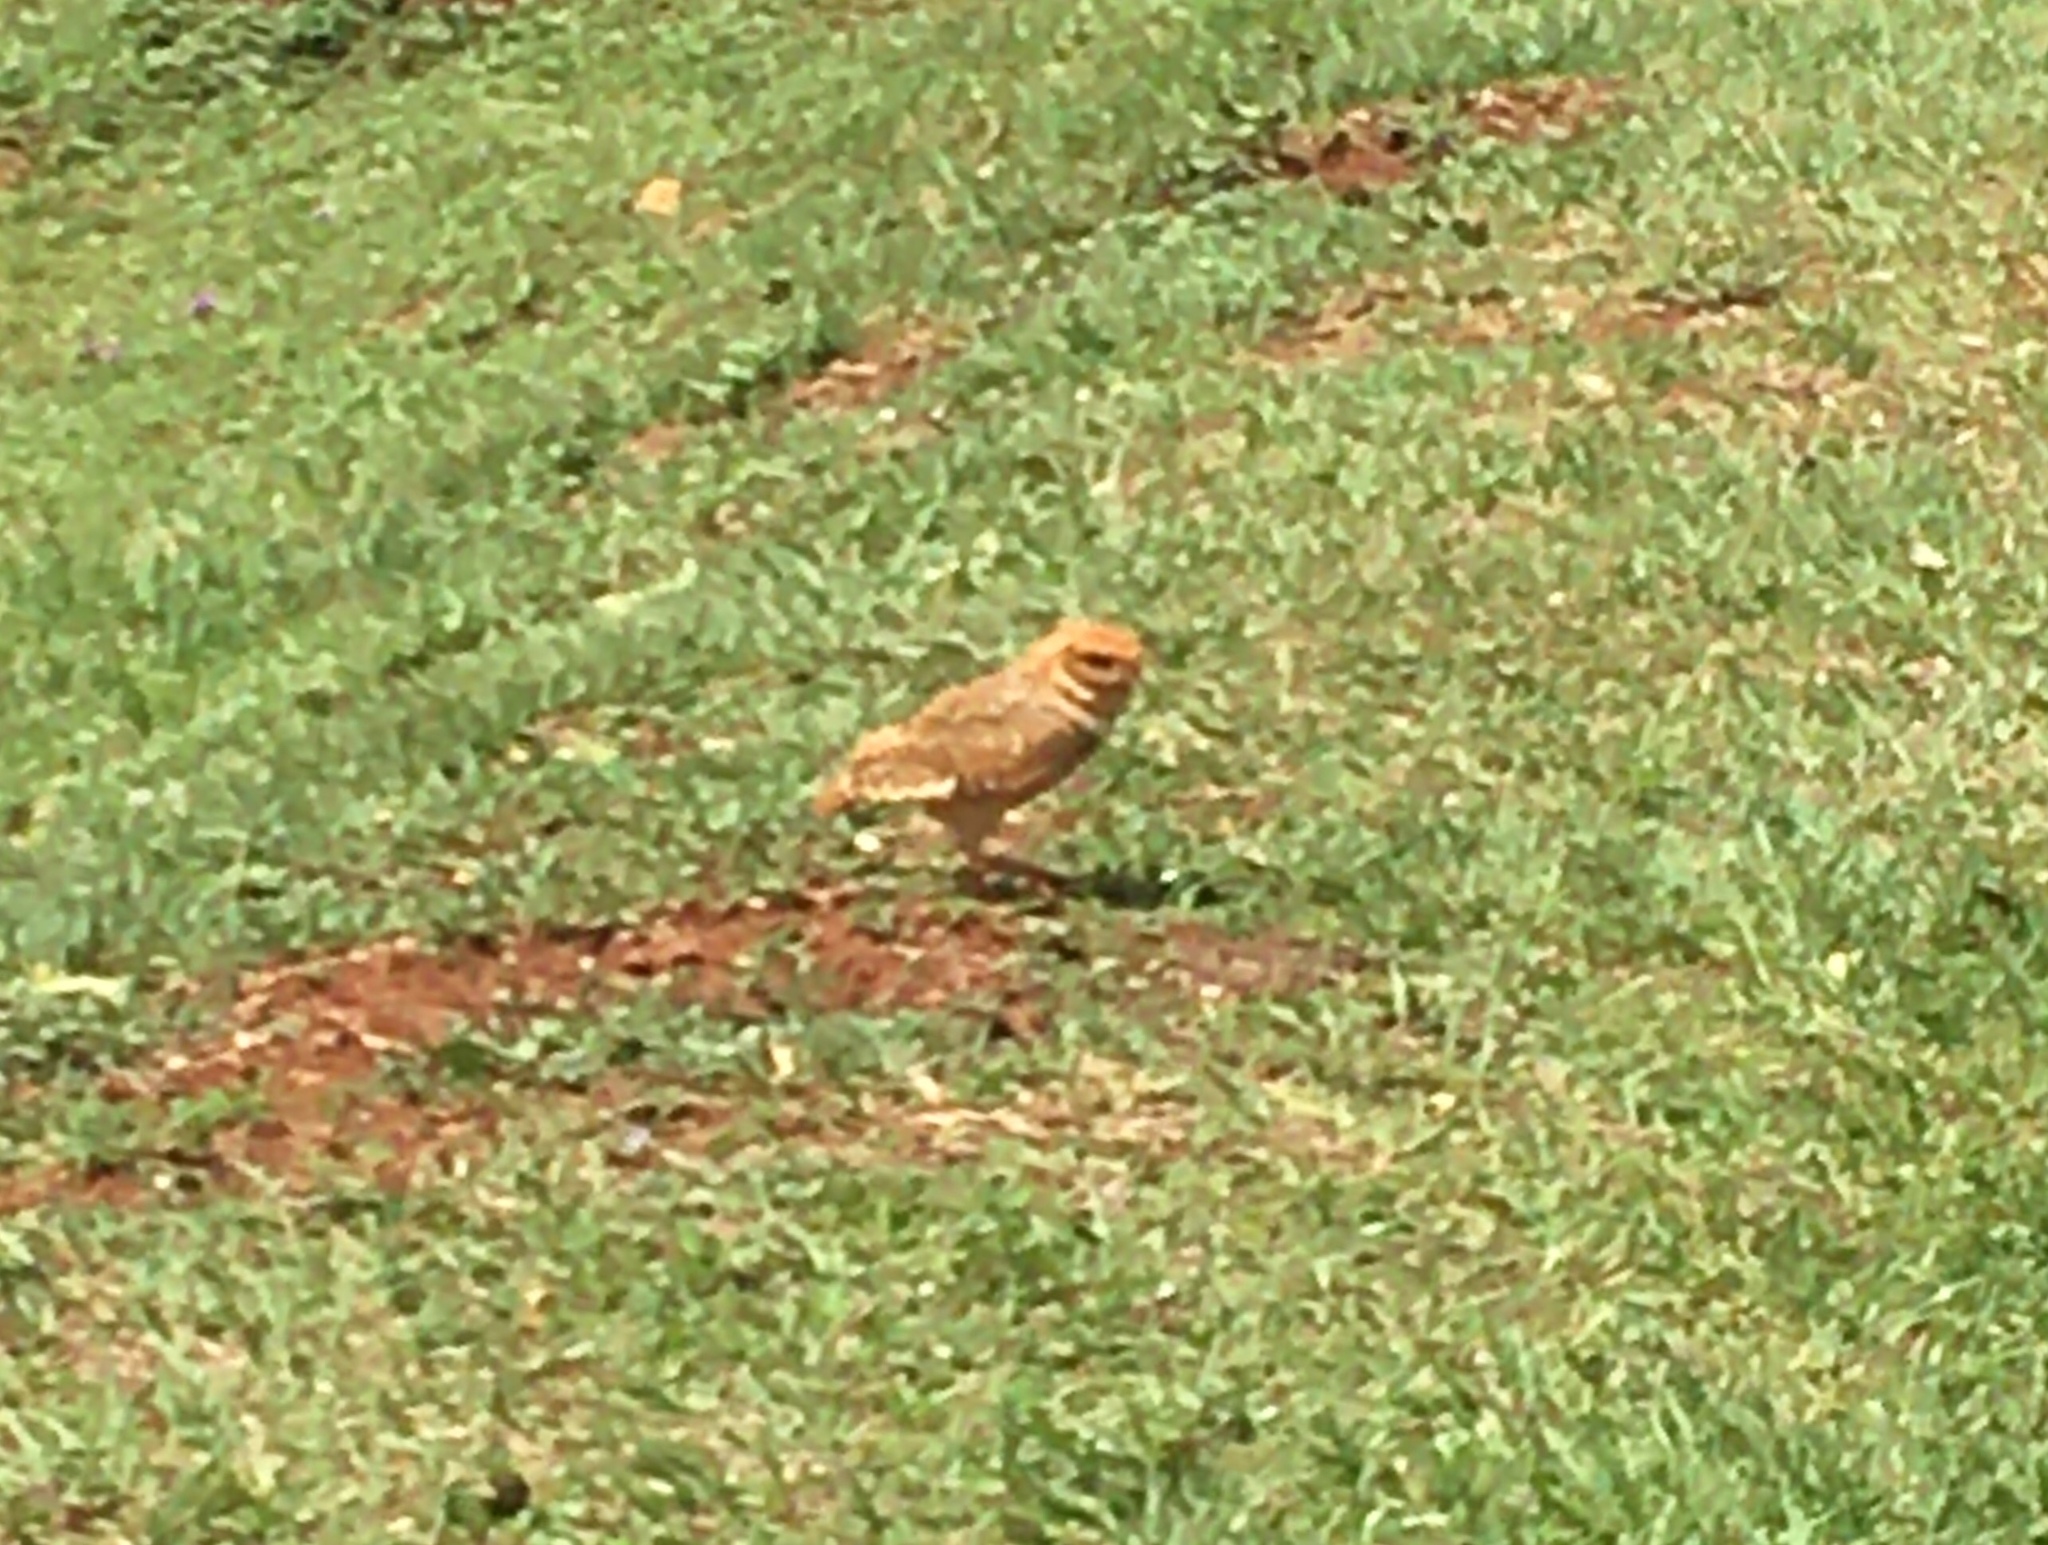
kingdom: Animalia
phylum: Chordata
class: Aves
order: Strigiformes
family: Strigidae
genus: Athene
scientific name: Athene cunicularia
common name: Burrowing owl
